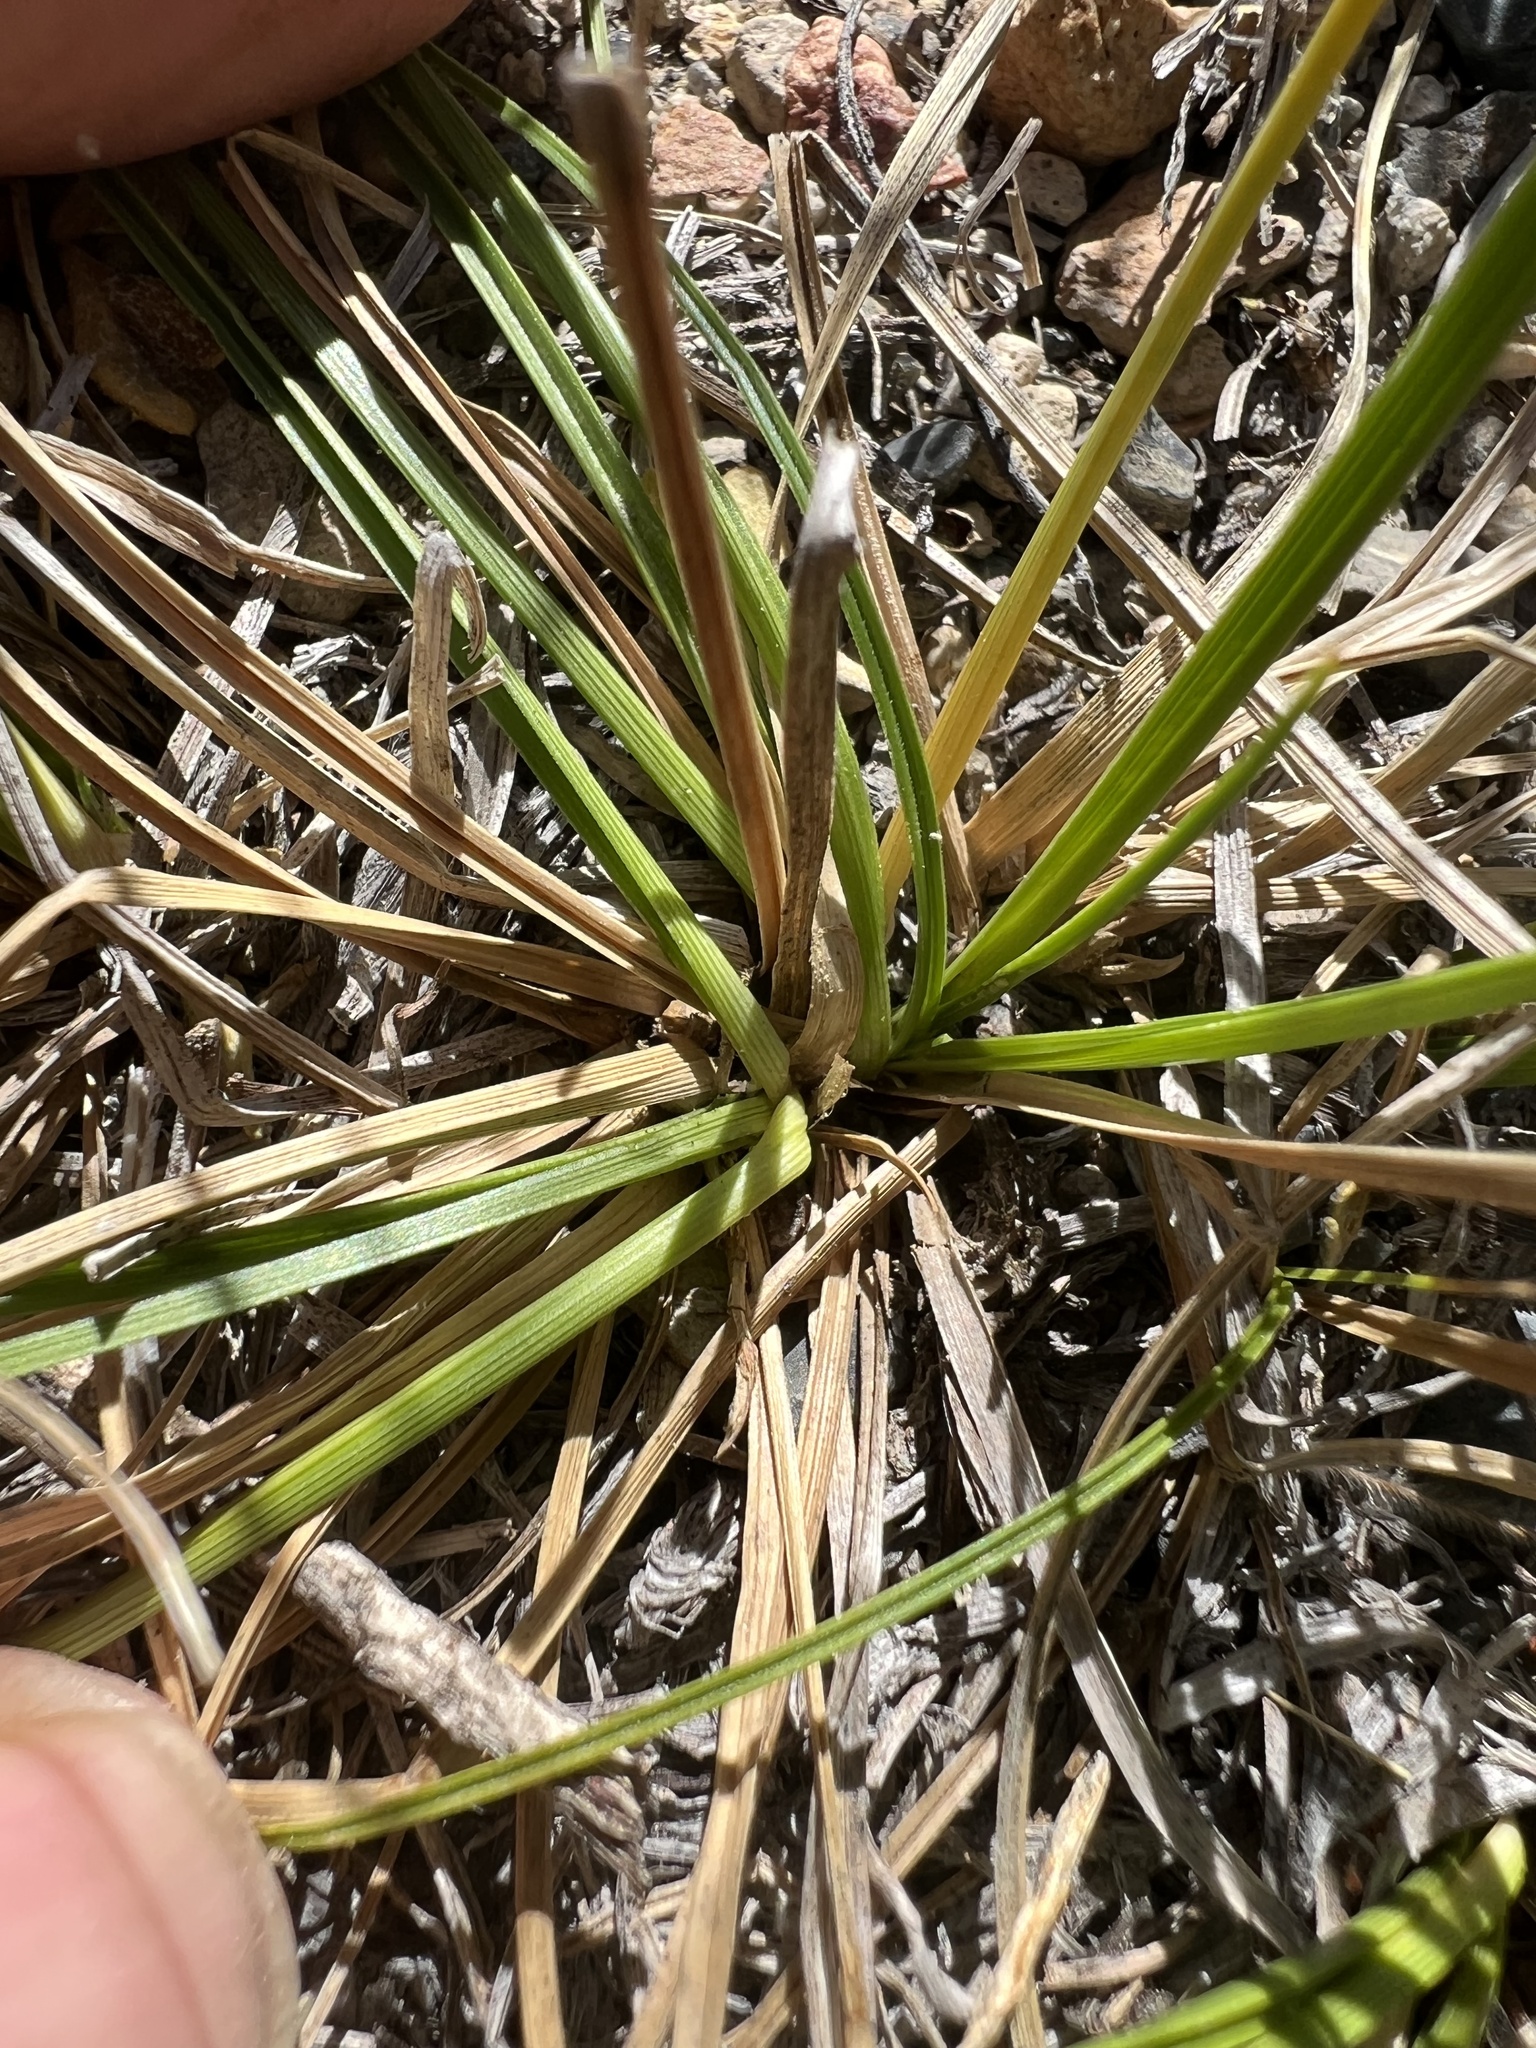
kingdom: Plantae
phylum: Tracheophyta
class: Liliopsida
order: Poales
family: Cyperaceae
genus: Carex
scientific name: Carex rossii
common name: Ross' sedge
